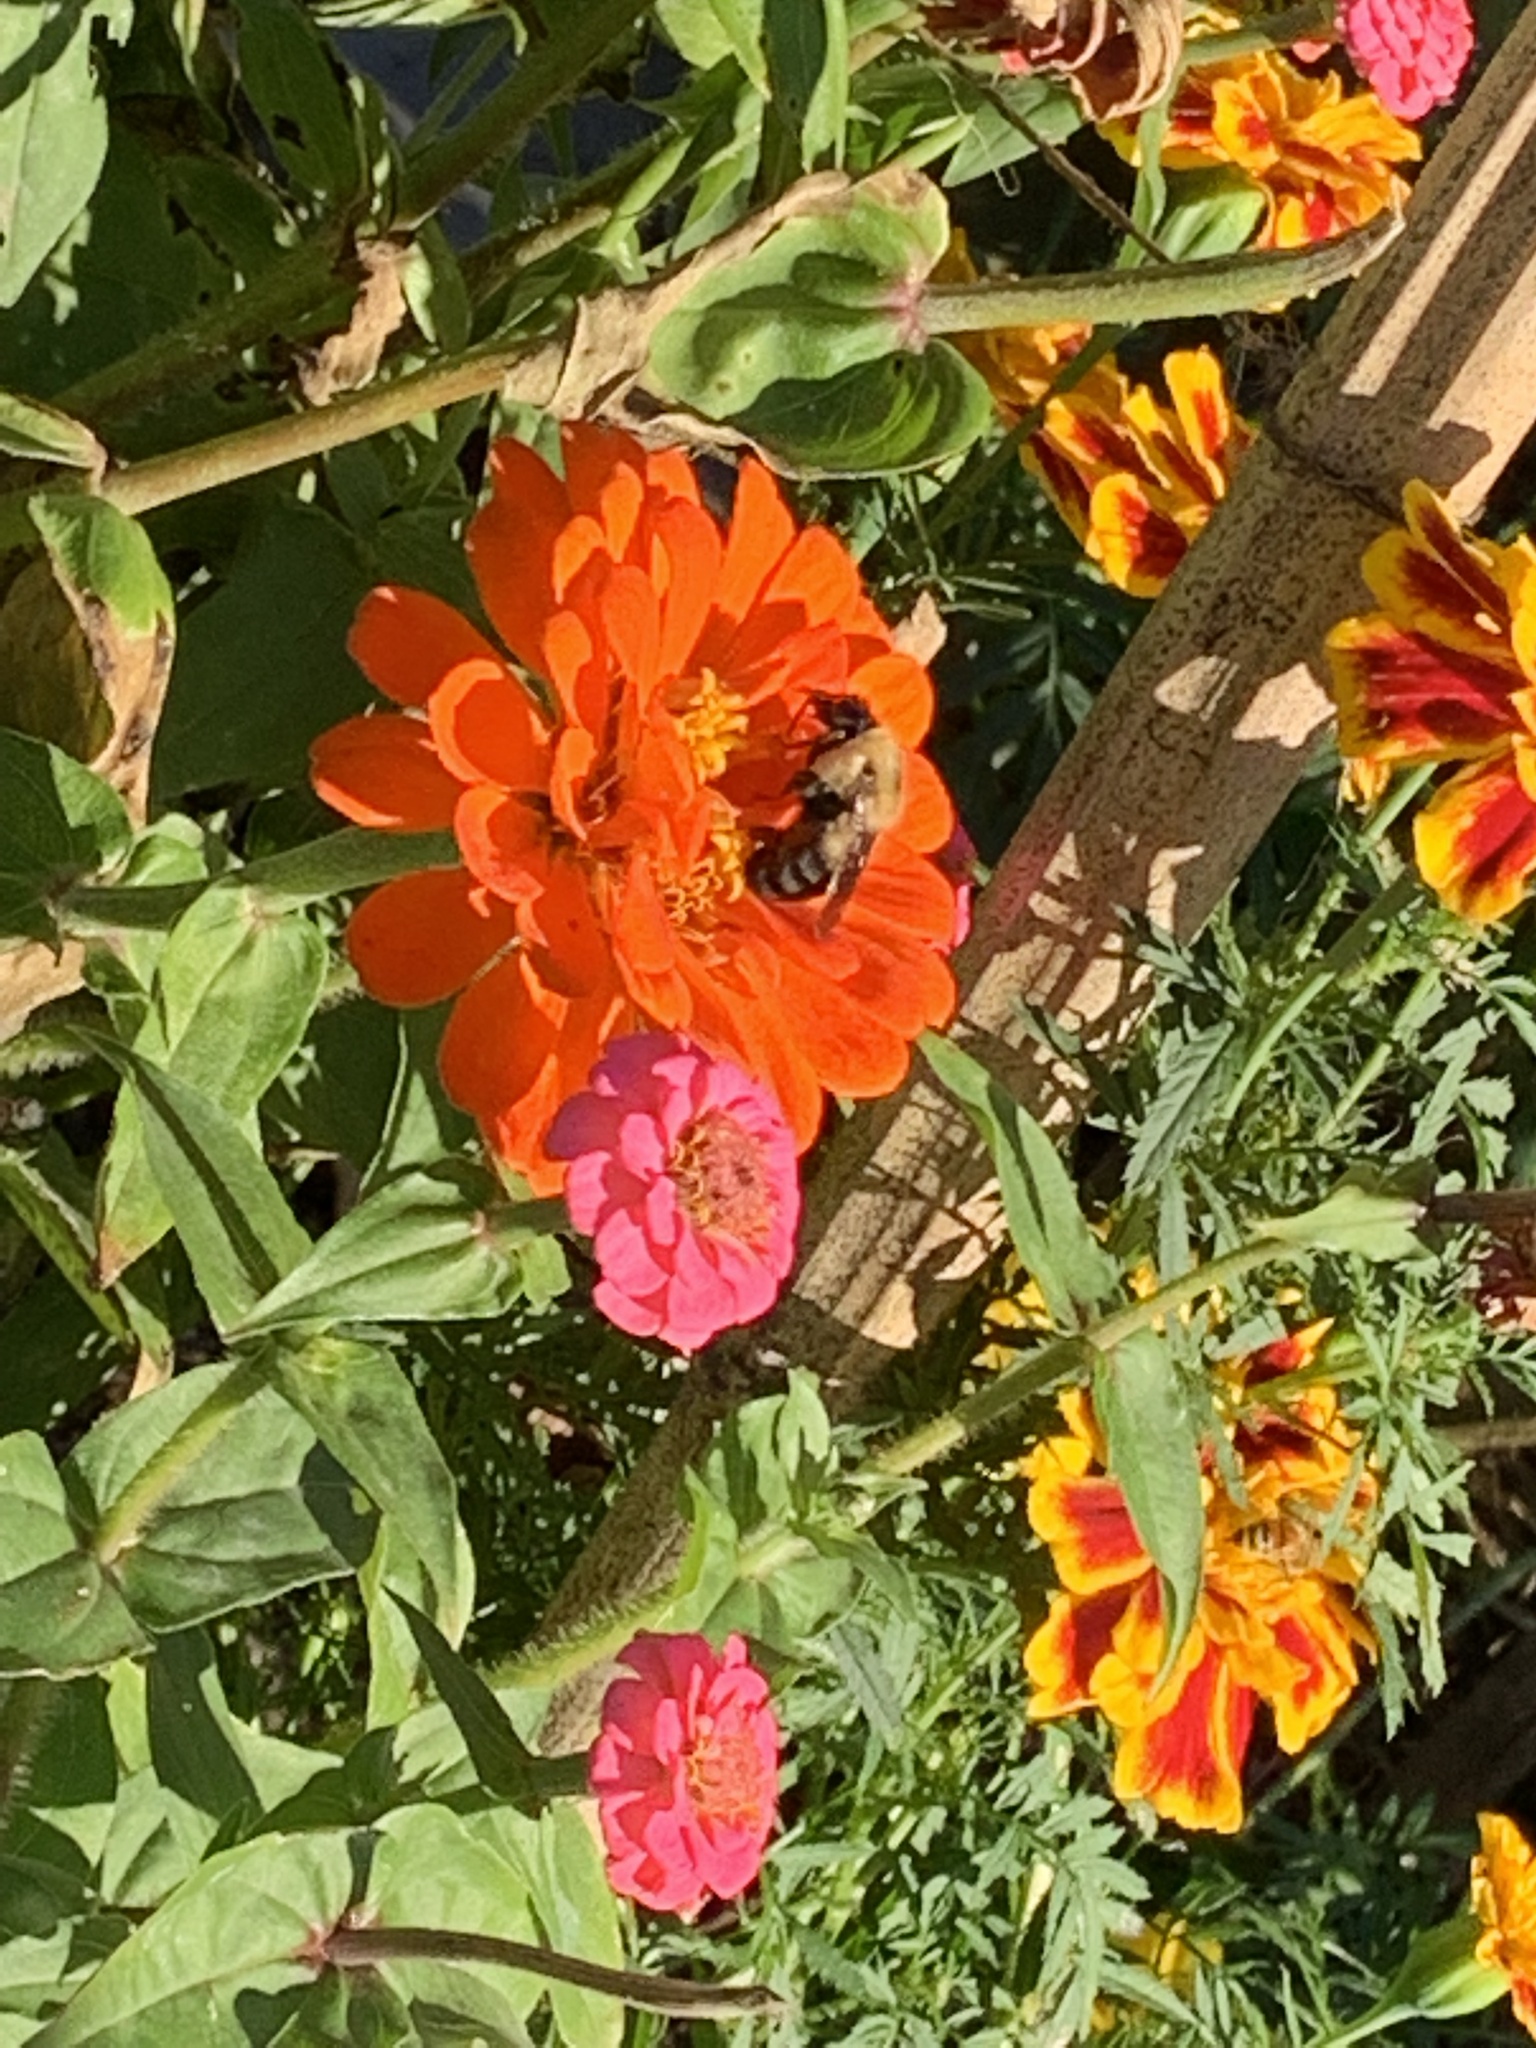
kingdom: Animalia
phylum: Arthropoda
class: Insecta
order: Hymenoptera
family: Apidae
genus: Bombus
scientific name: Bombus griseocollis
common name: Brown-belted bumble bee
